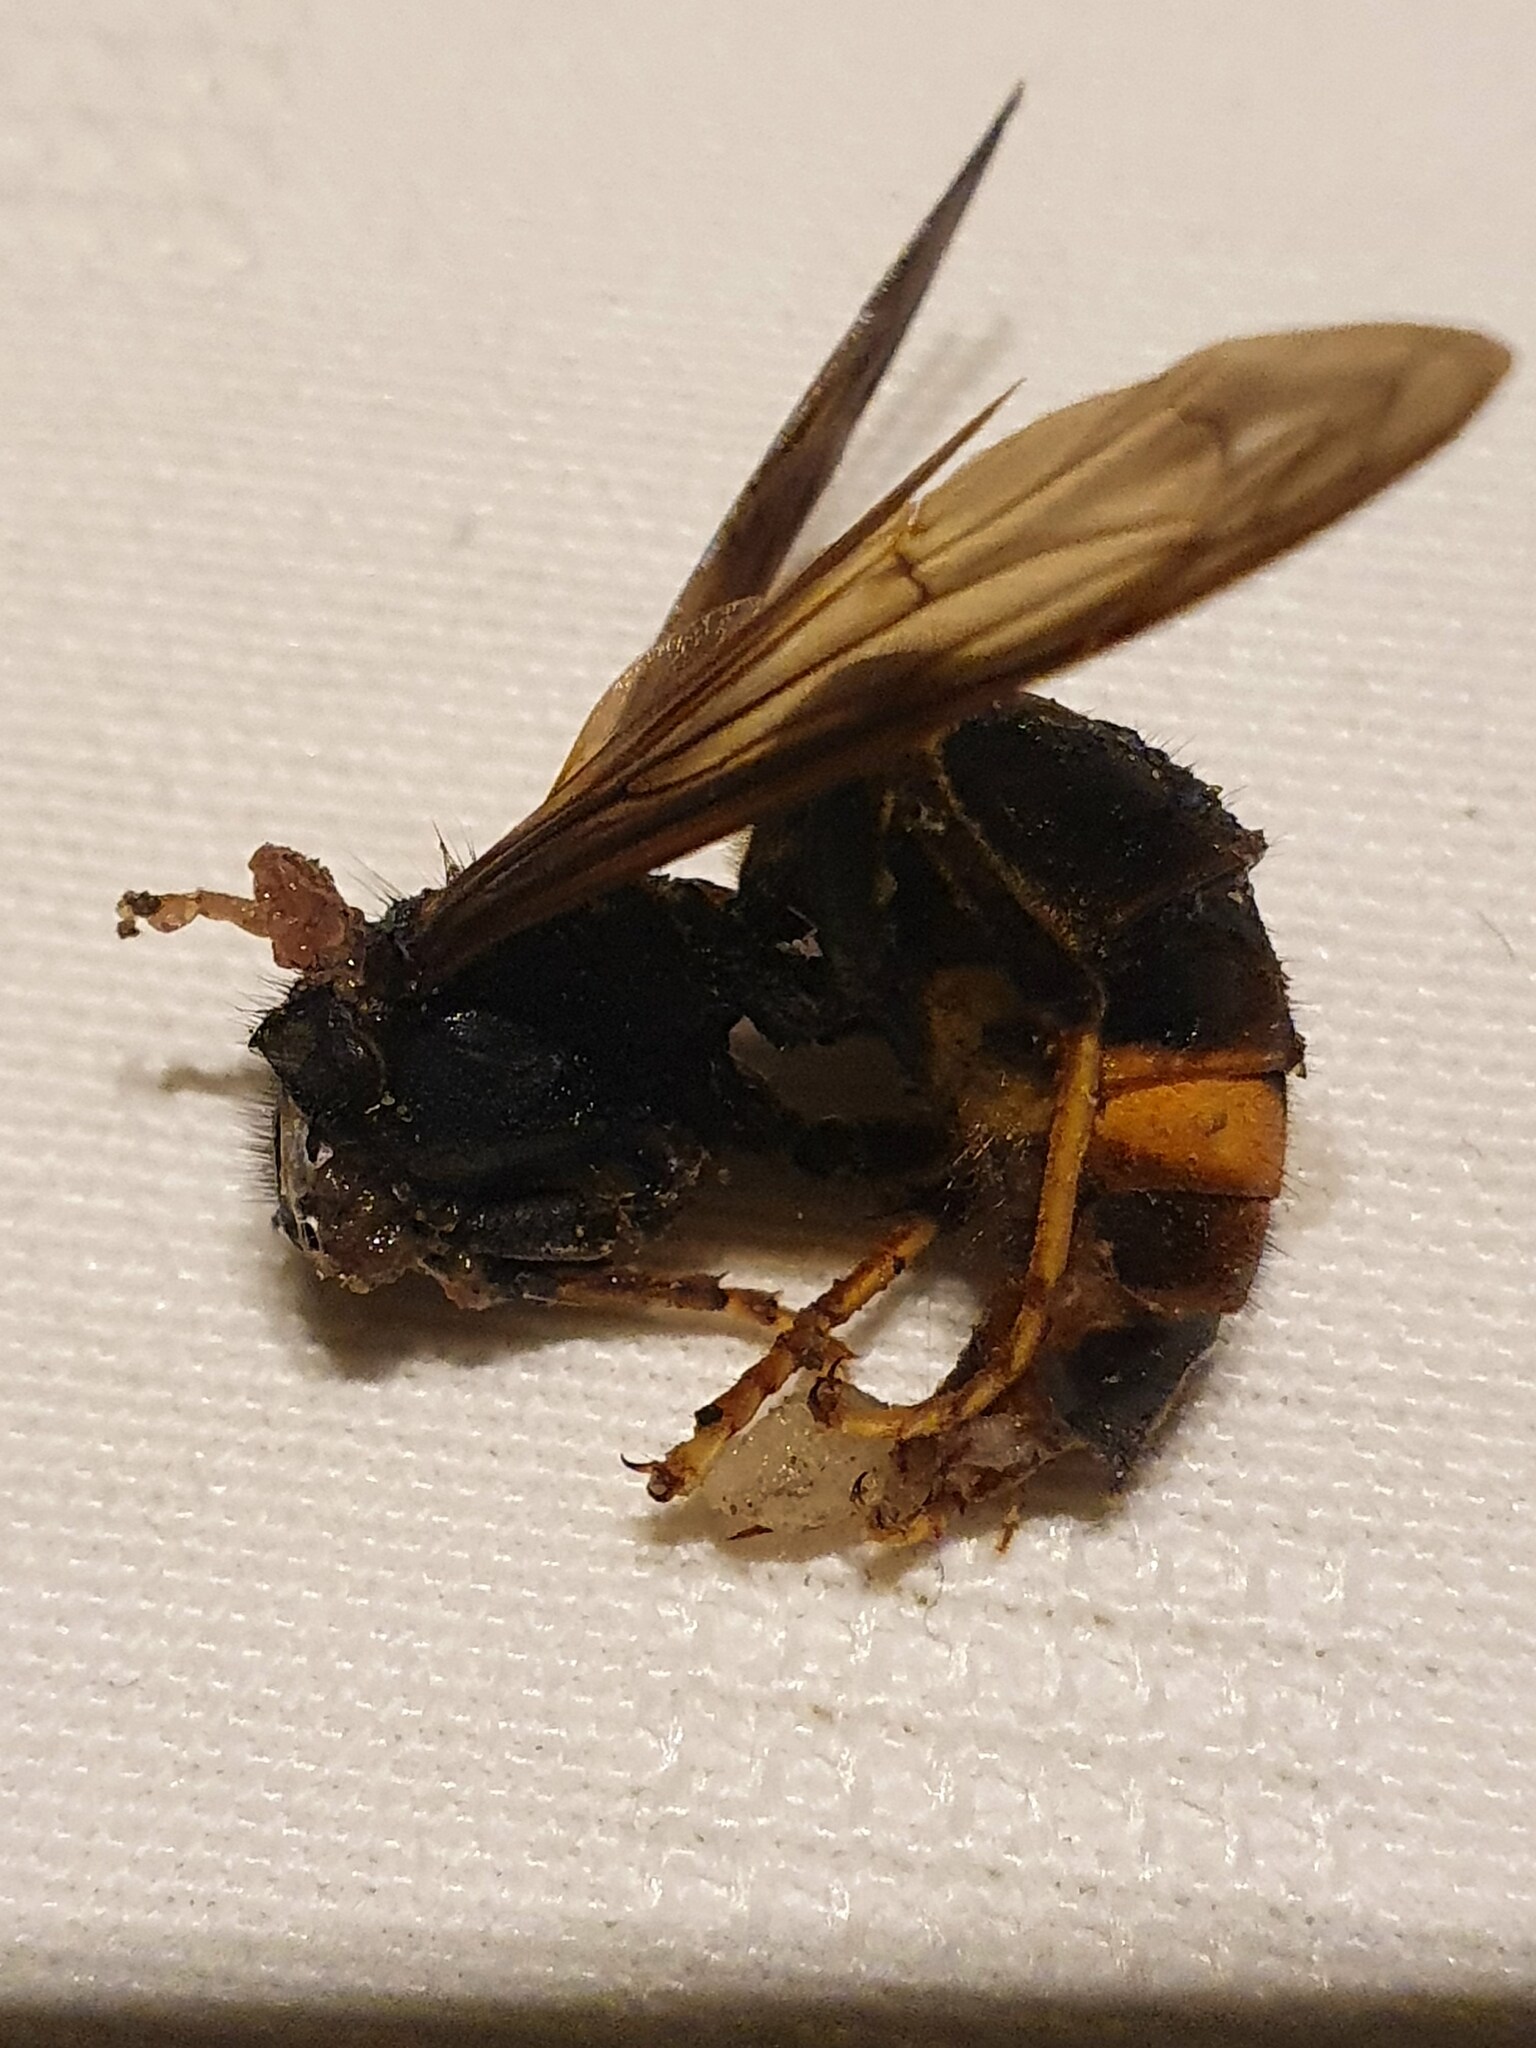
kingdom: Animalia
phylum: Arthropoda
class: Insecta
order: Hymenoptera
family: Vespidae
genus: Vespa
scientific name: Vespa velutina
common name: Asian hornet
